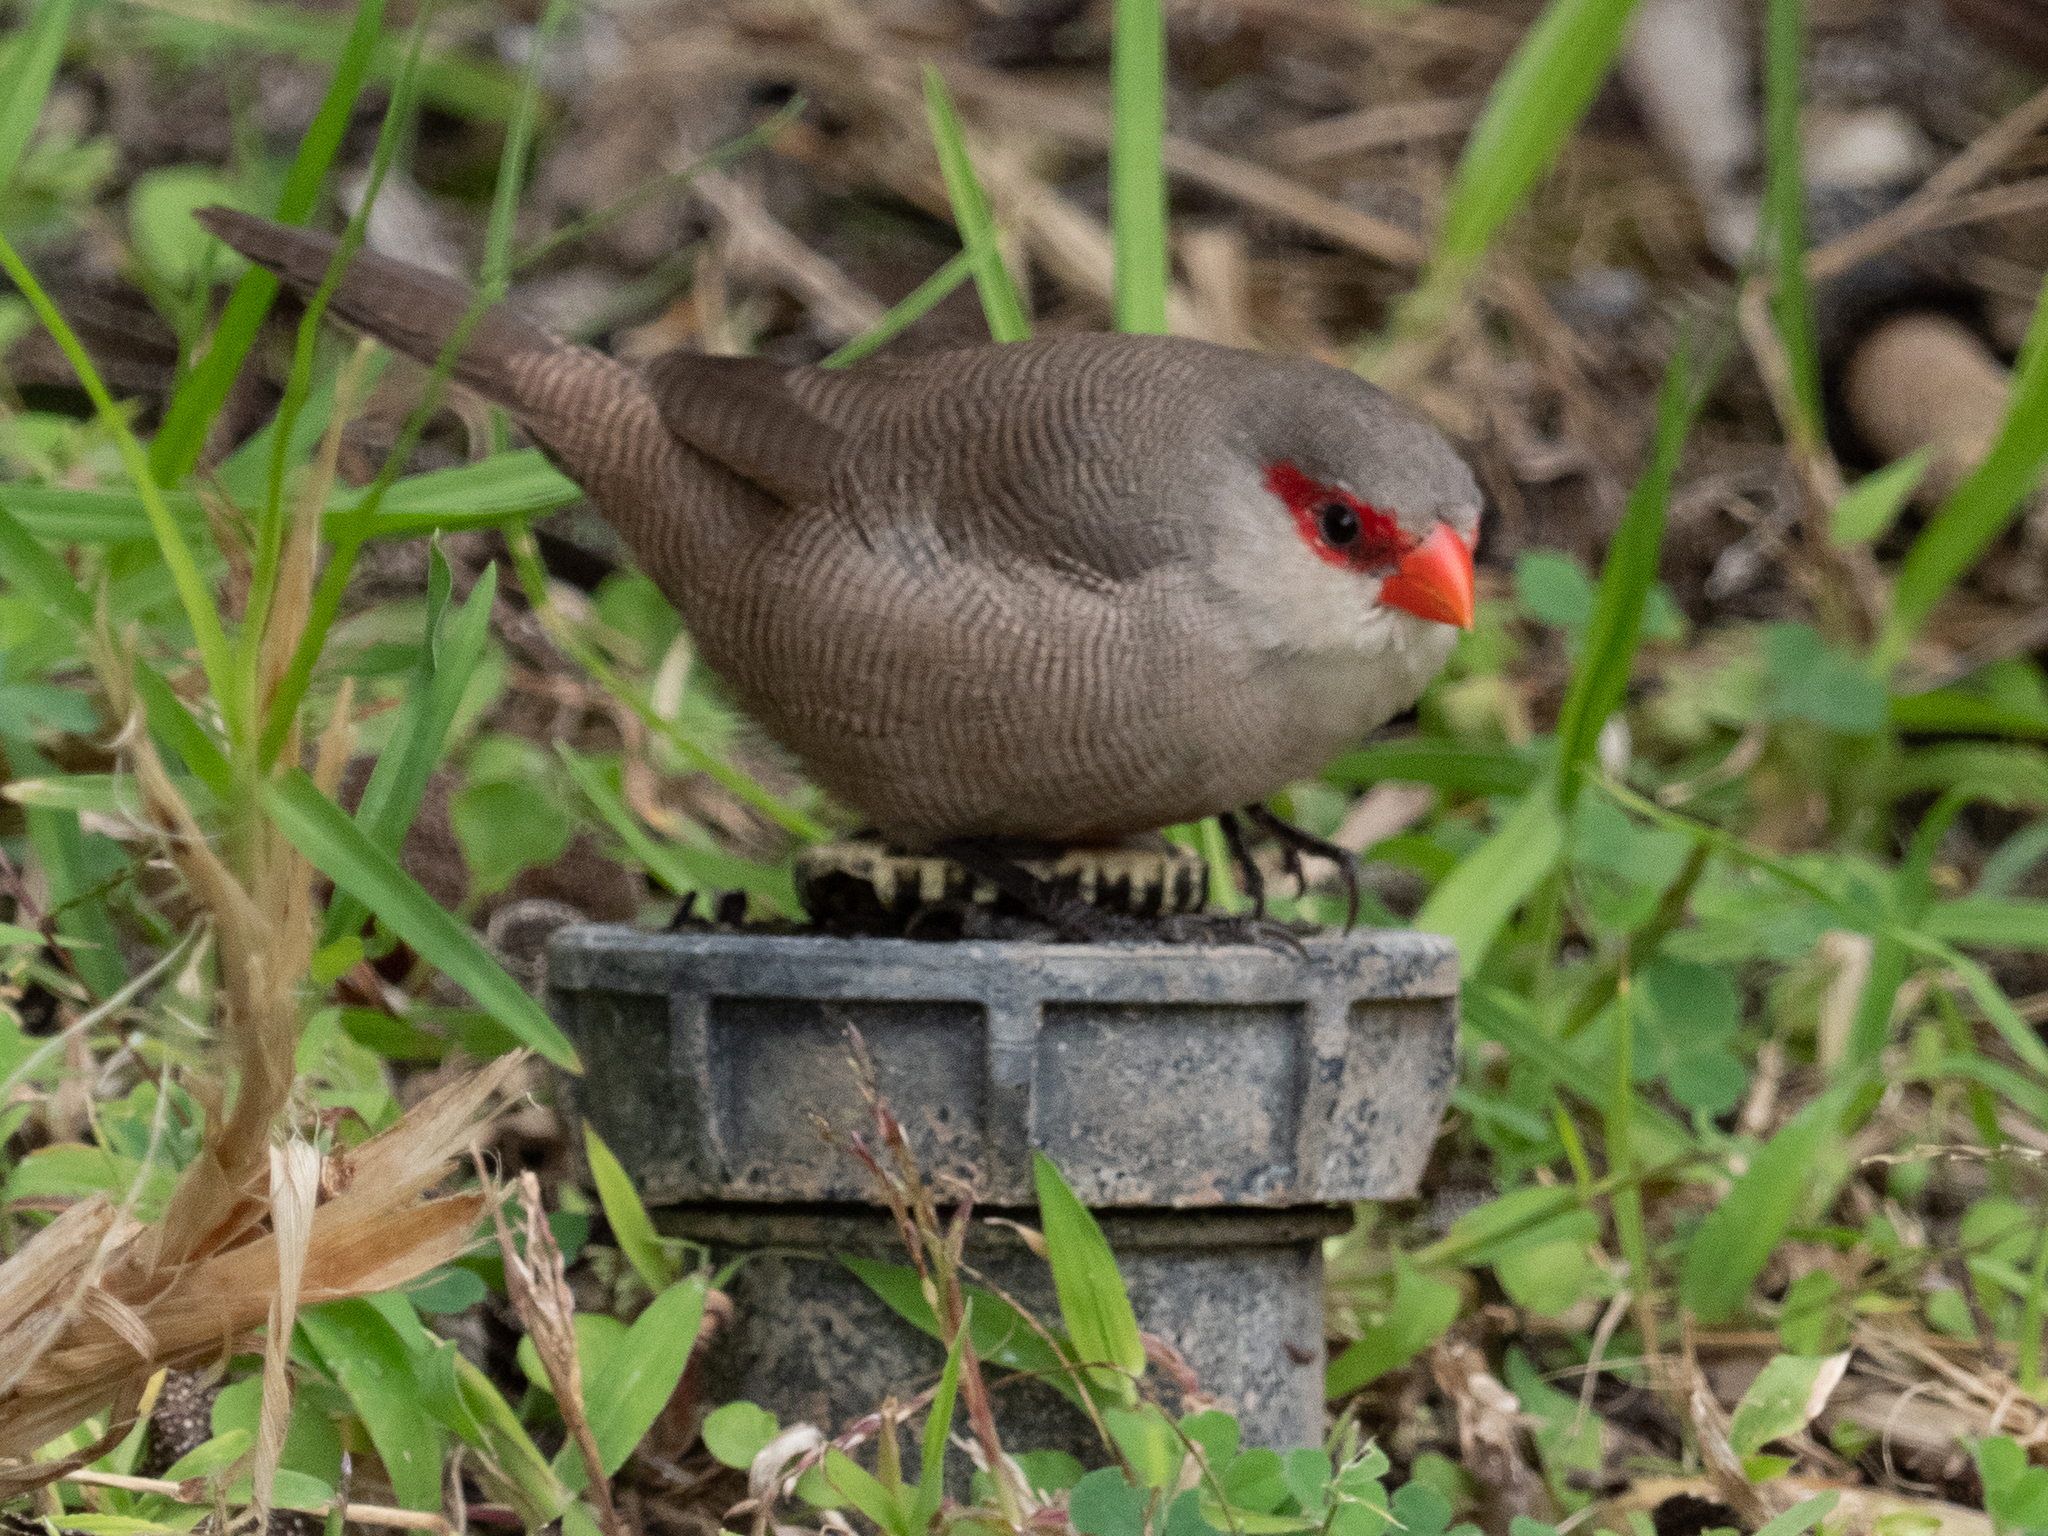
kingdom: Animalia
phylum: Chordata
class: Aves
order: Passeriformes
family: Estrildidae
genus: Estrilda
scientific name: Estrilda astrild
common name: Common waxbill
